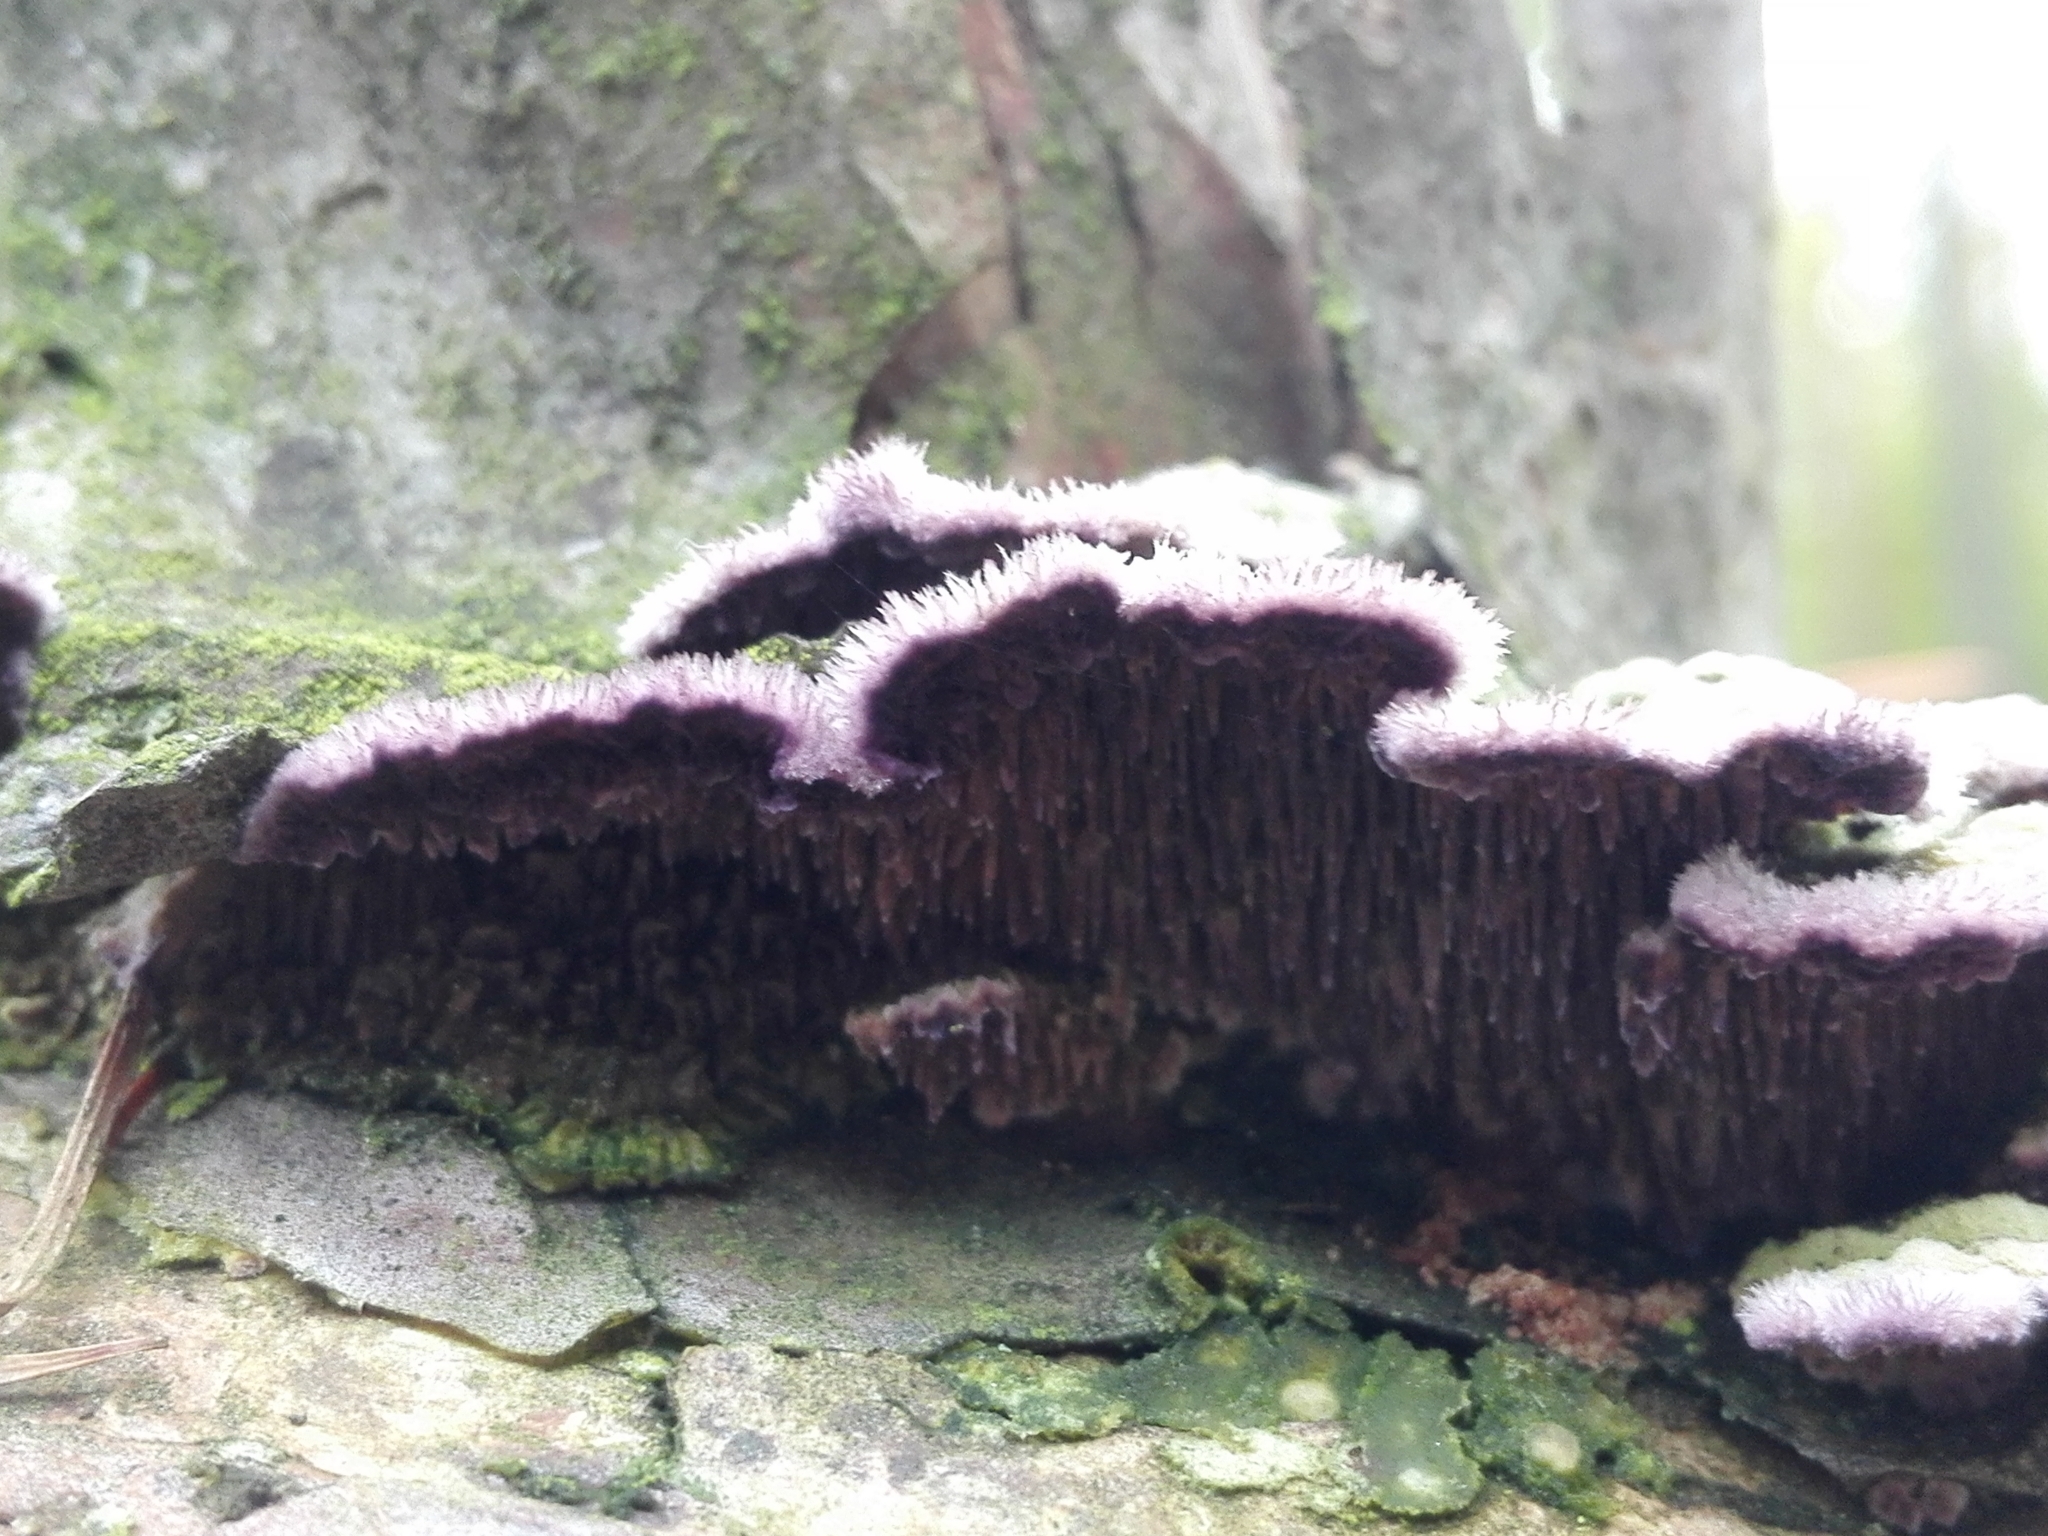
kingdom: Fungi
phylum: Basidiomycota
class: Agaricomycetes
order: Agaricales
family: Cyphellaceae
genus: Chondrostereum
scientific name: Chondrostereum purpureum
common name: Silver leaf disease
